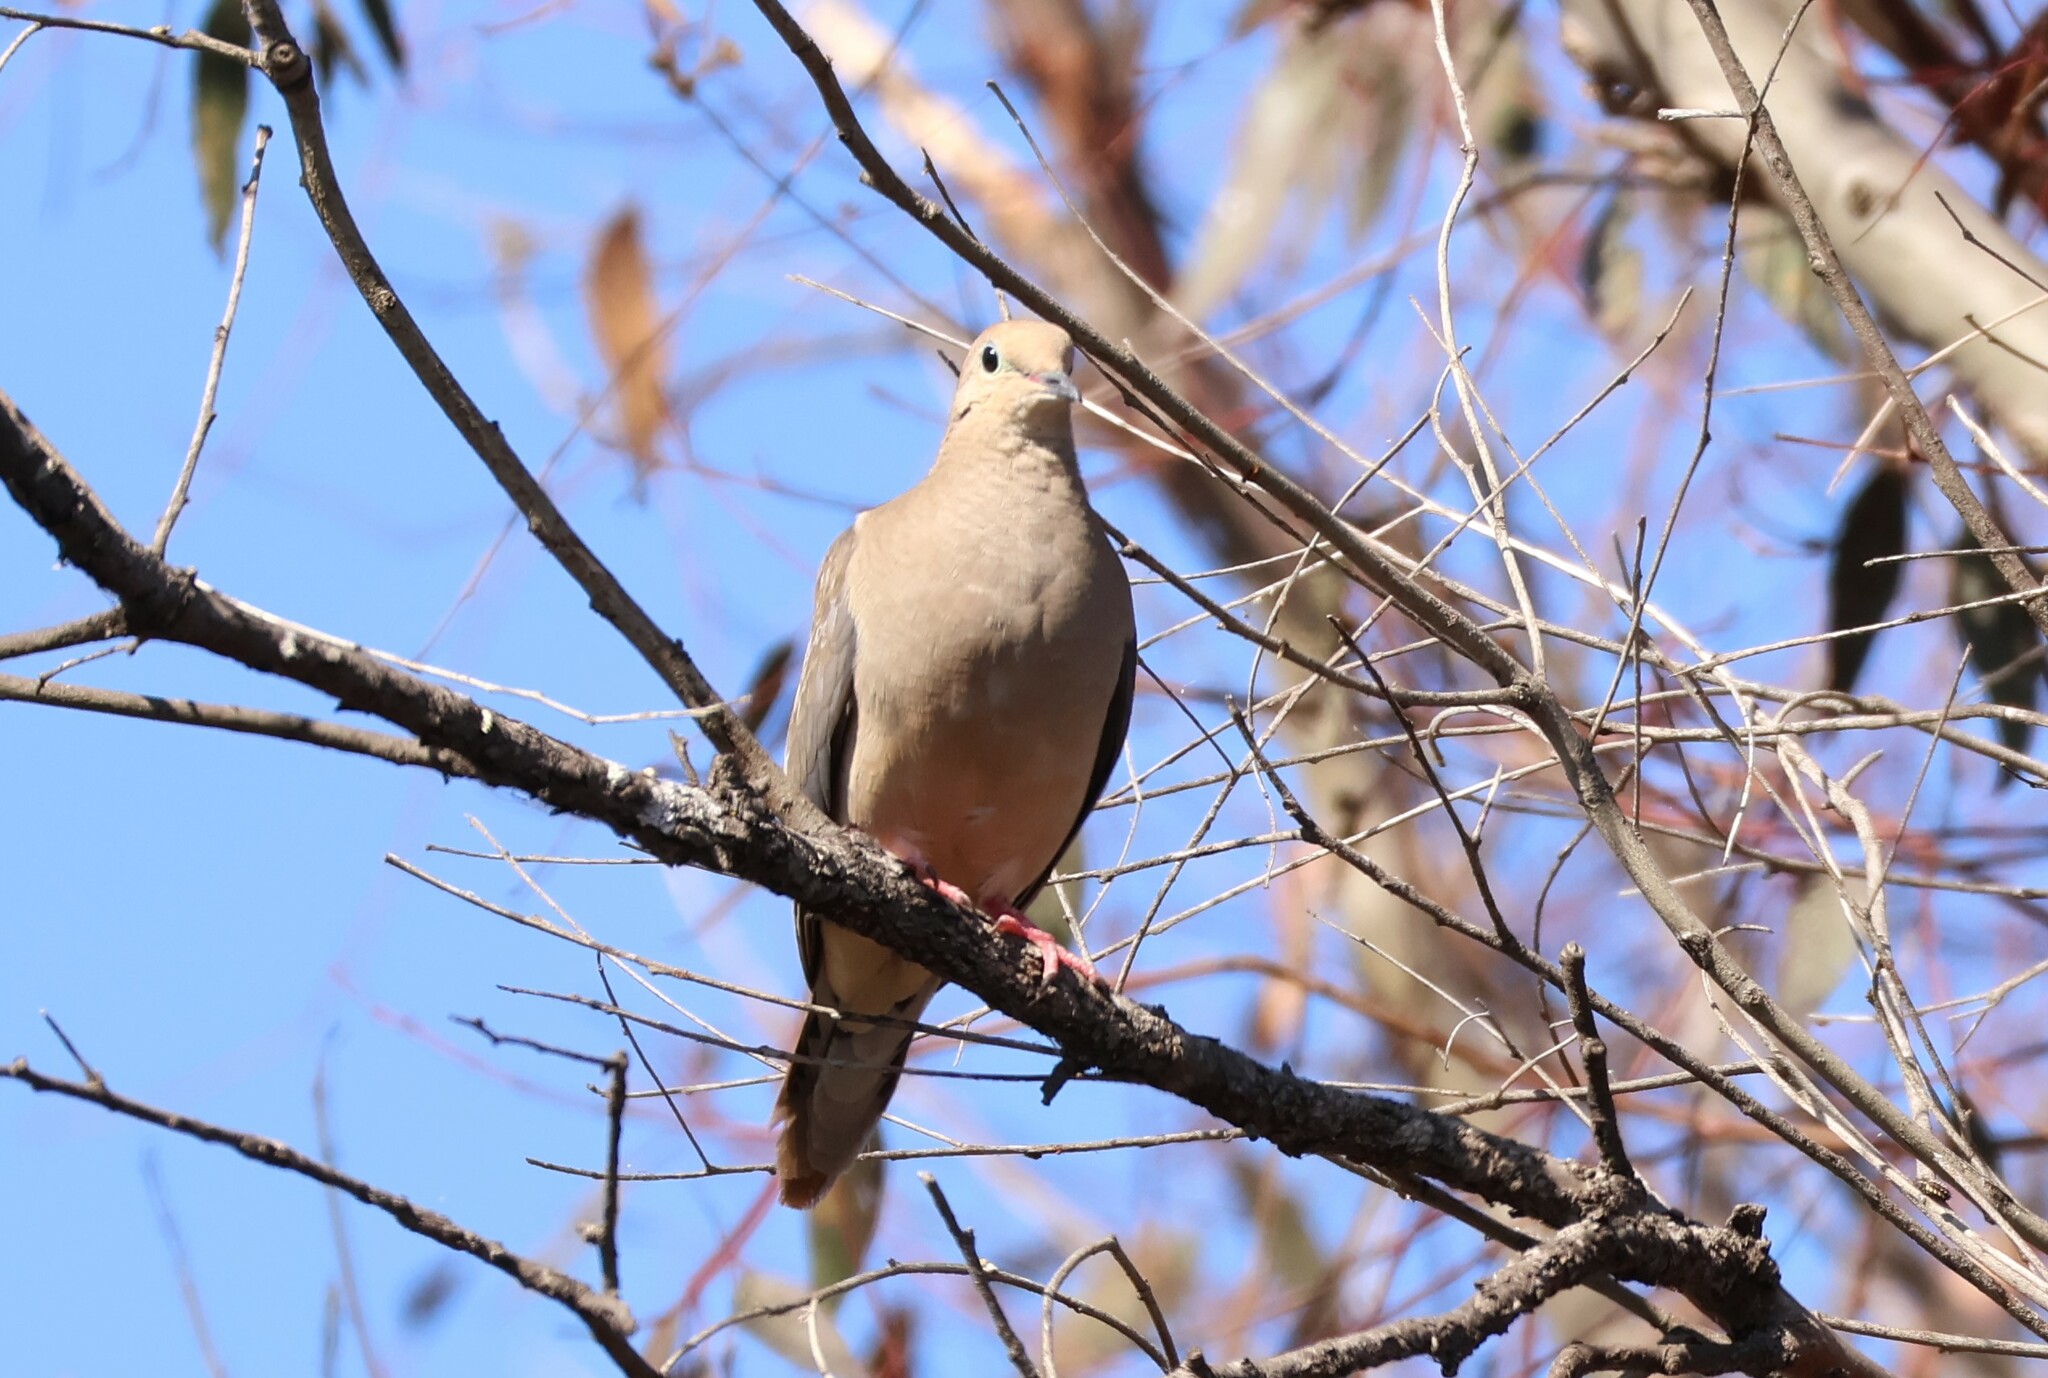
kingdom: Animalia
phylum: Chordata
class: Aves
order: Columbiformes
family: Columbidae
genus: Zenaida
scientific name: Zenaida macroura
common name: Mourning dove
